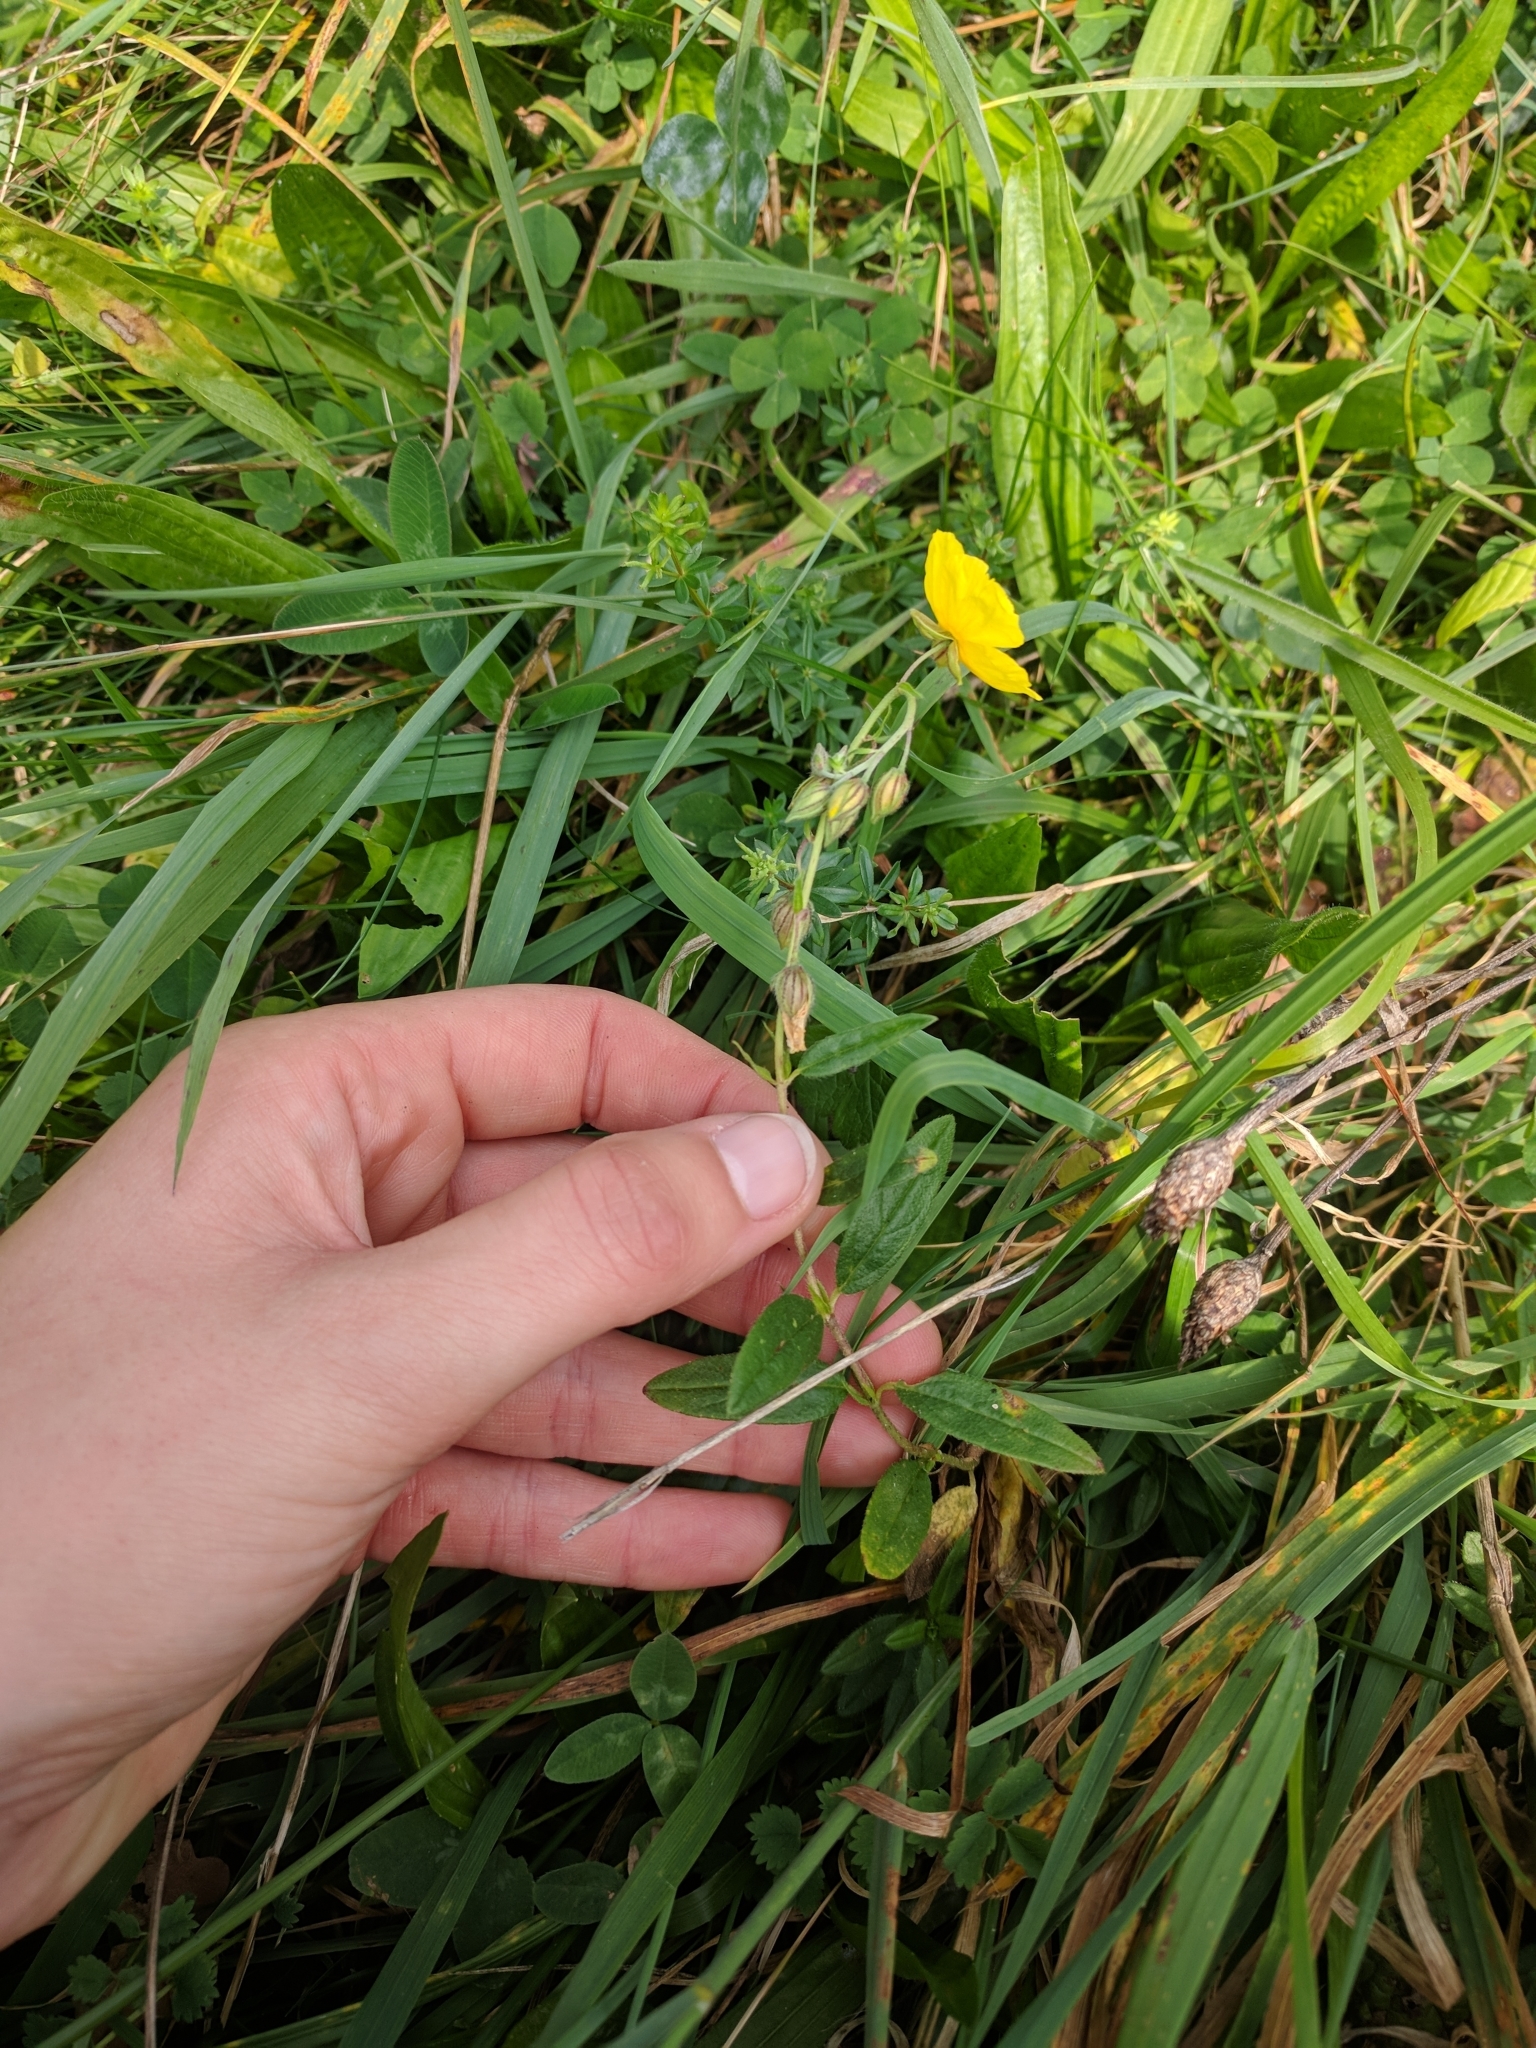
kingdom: Plantae
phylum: Tracheophyta
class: Magnoliopsida
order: Malvales
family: Cistaceae
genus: Helianthemum
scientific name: Helianthemum nummularium
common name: Common rock-rose
